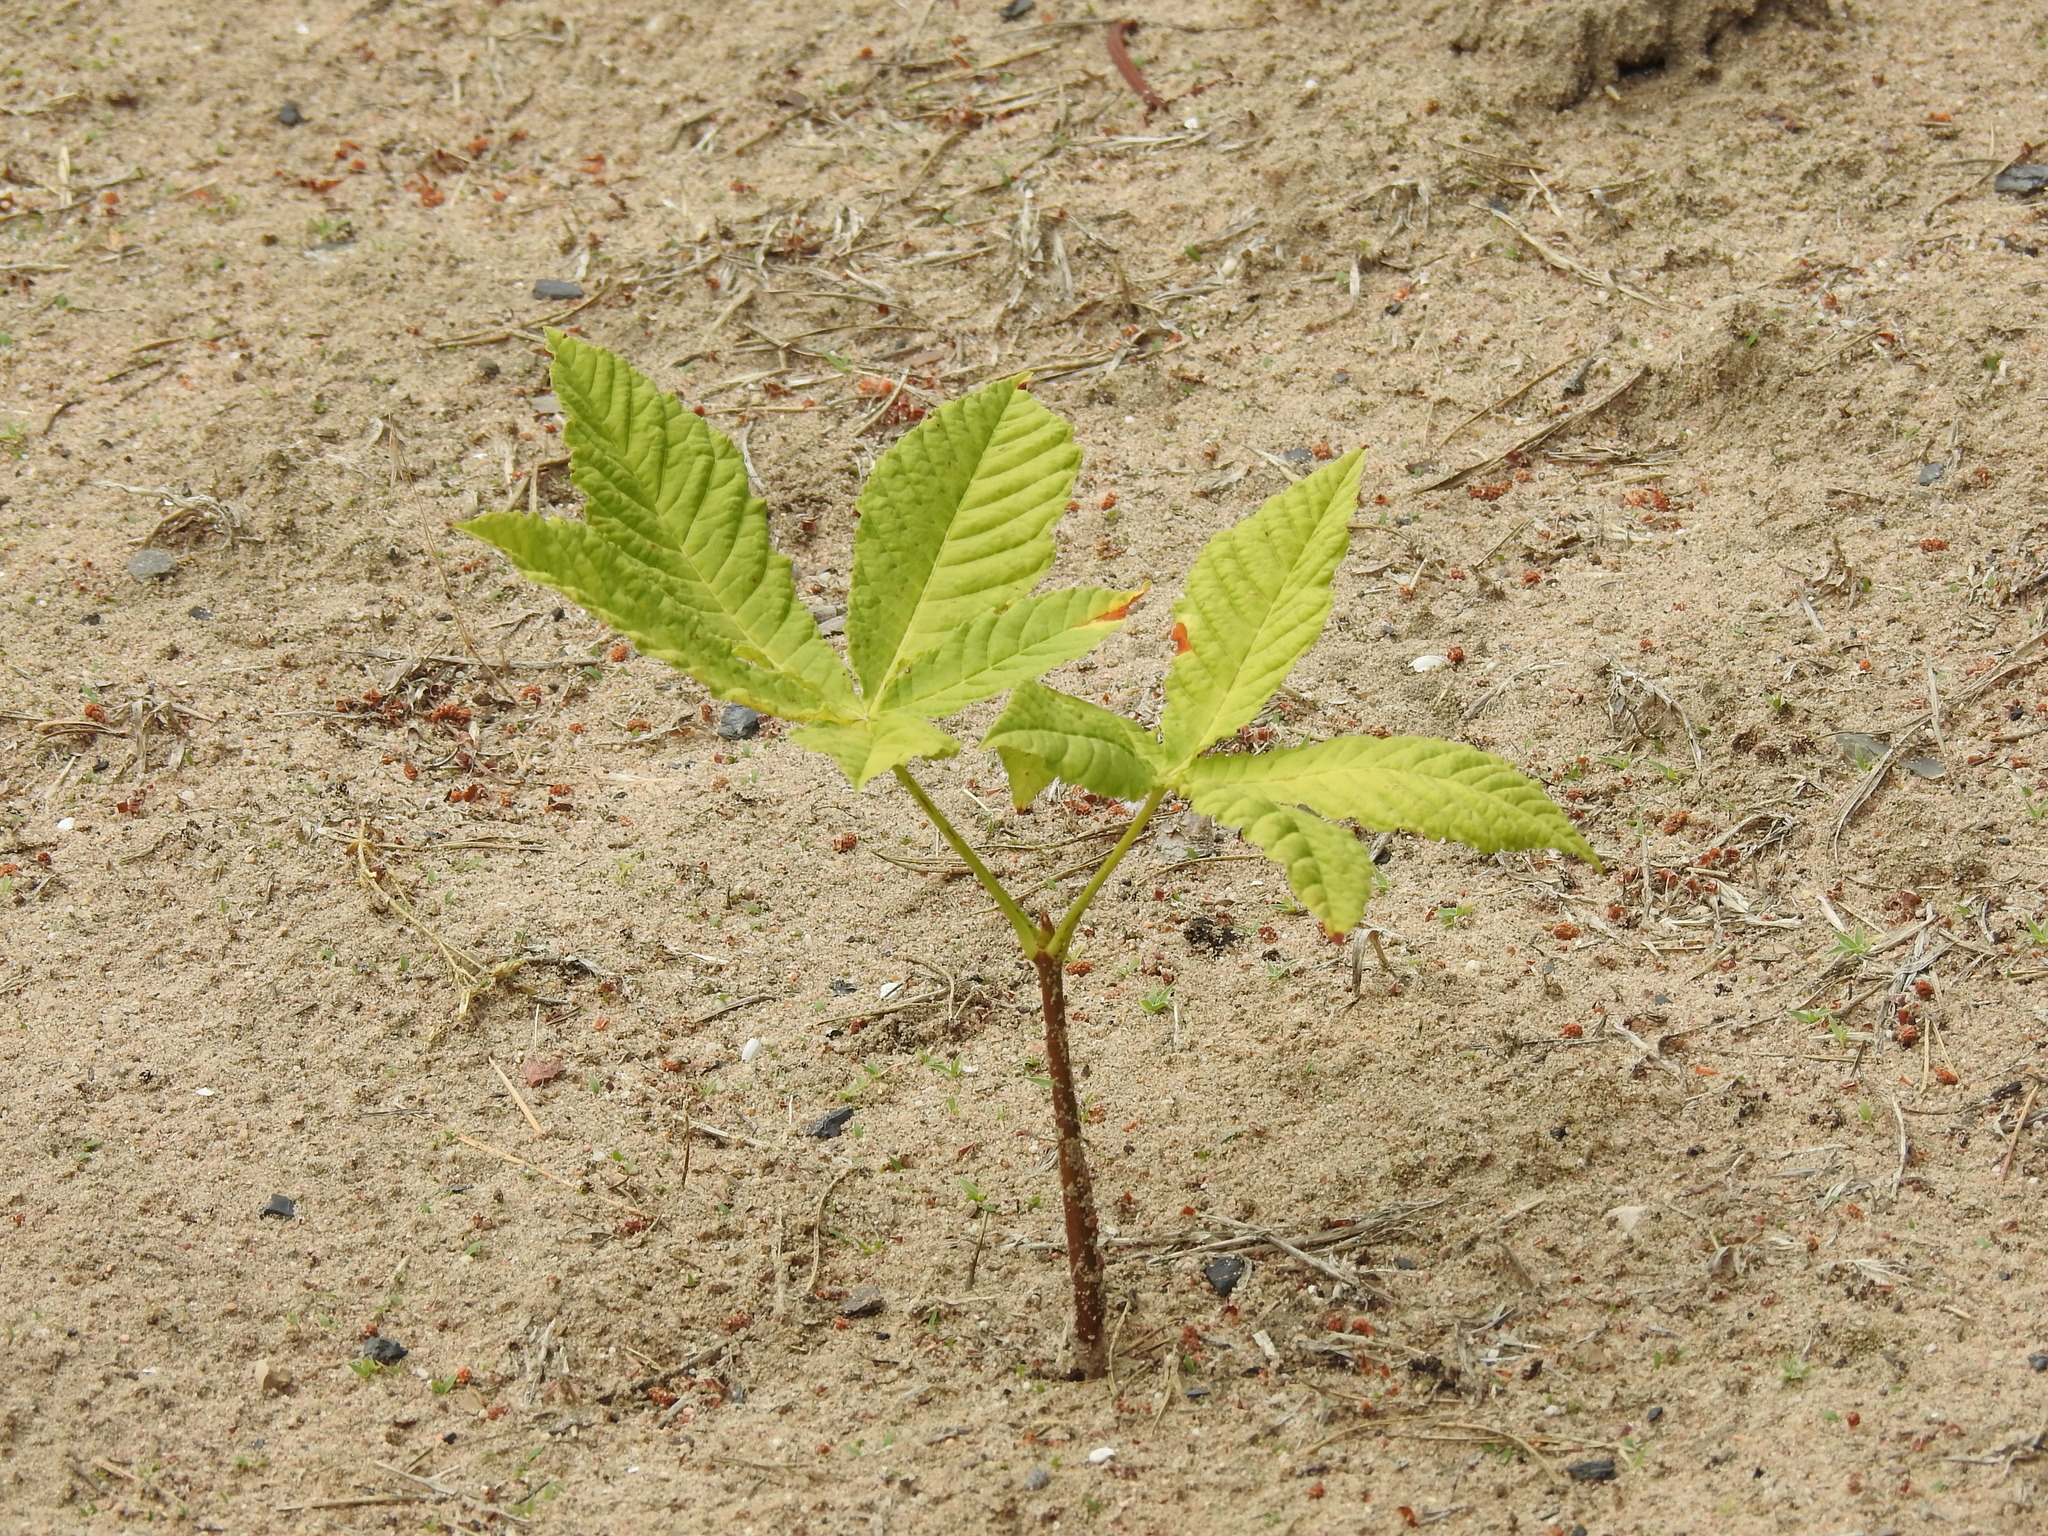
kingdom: Plantae
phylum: Tracheophyta
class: Magnoliopsida
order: Sapindales
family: Sapindaceae
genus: Aesculus
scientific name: Aesculus hippocastanum
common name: Horse-chestnut
